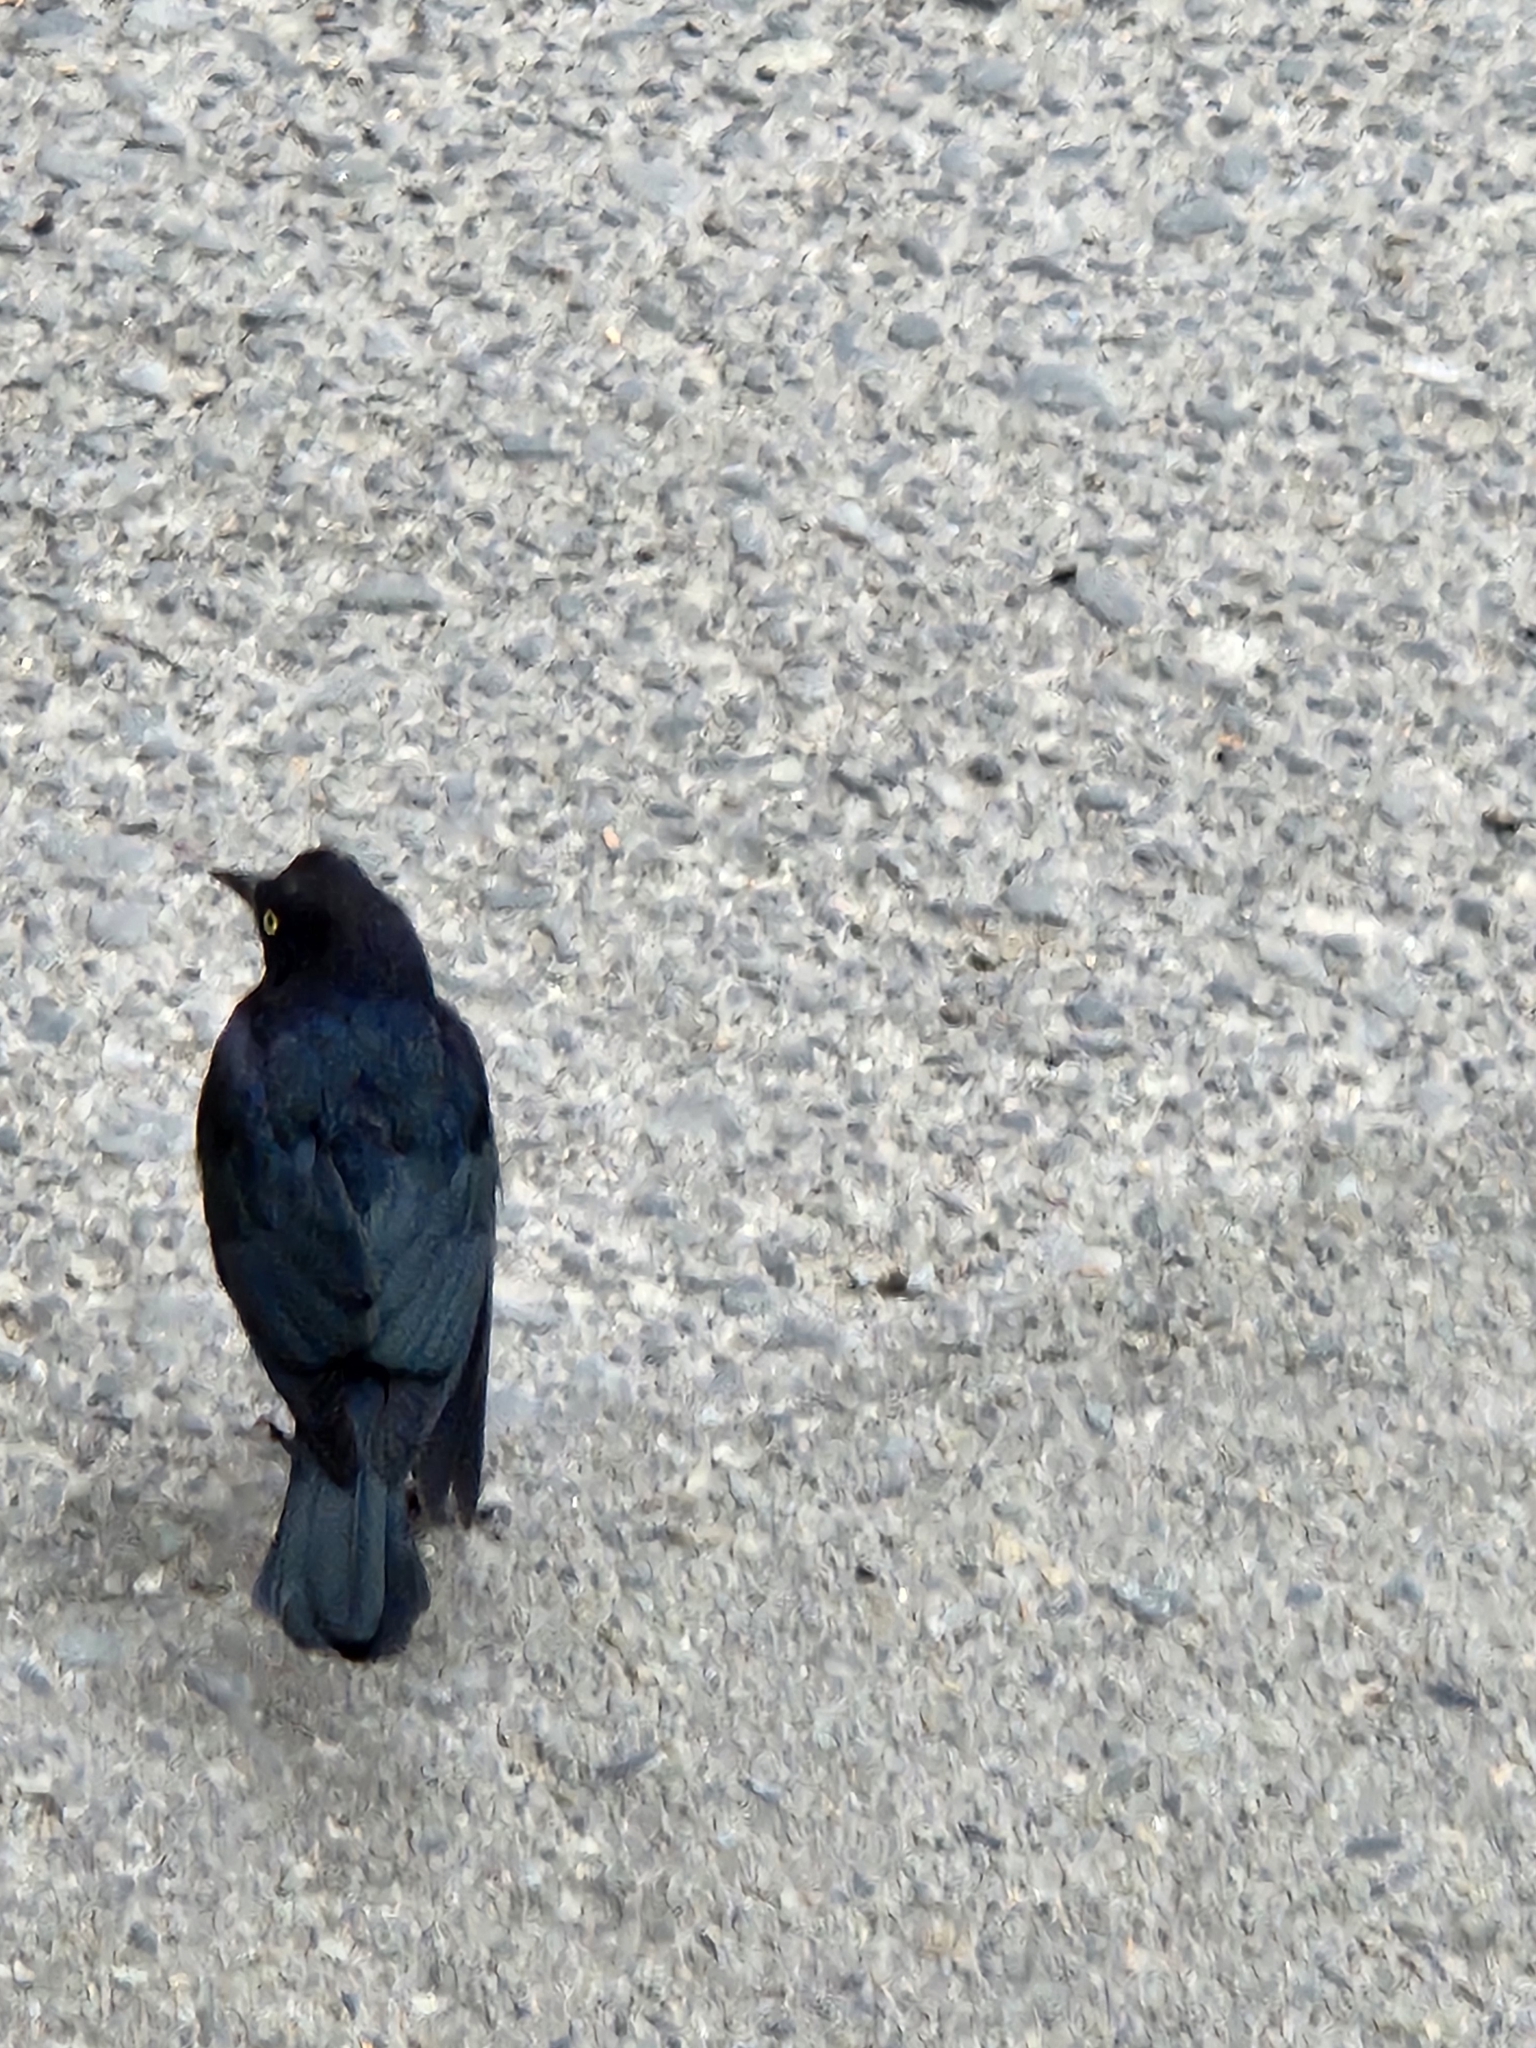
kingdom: Animalia
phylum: Chordata
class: Aves
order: Passeriformes
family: Icteridae
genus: Euphagus
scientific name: Euphagus cyanocephalus
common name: Brewer's blackbird
